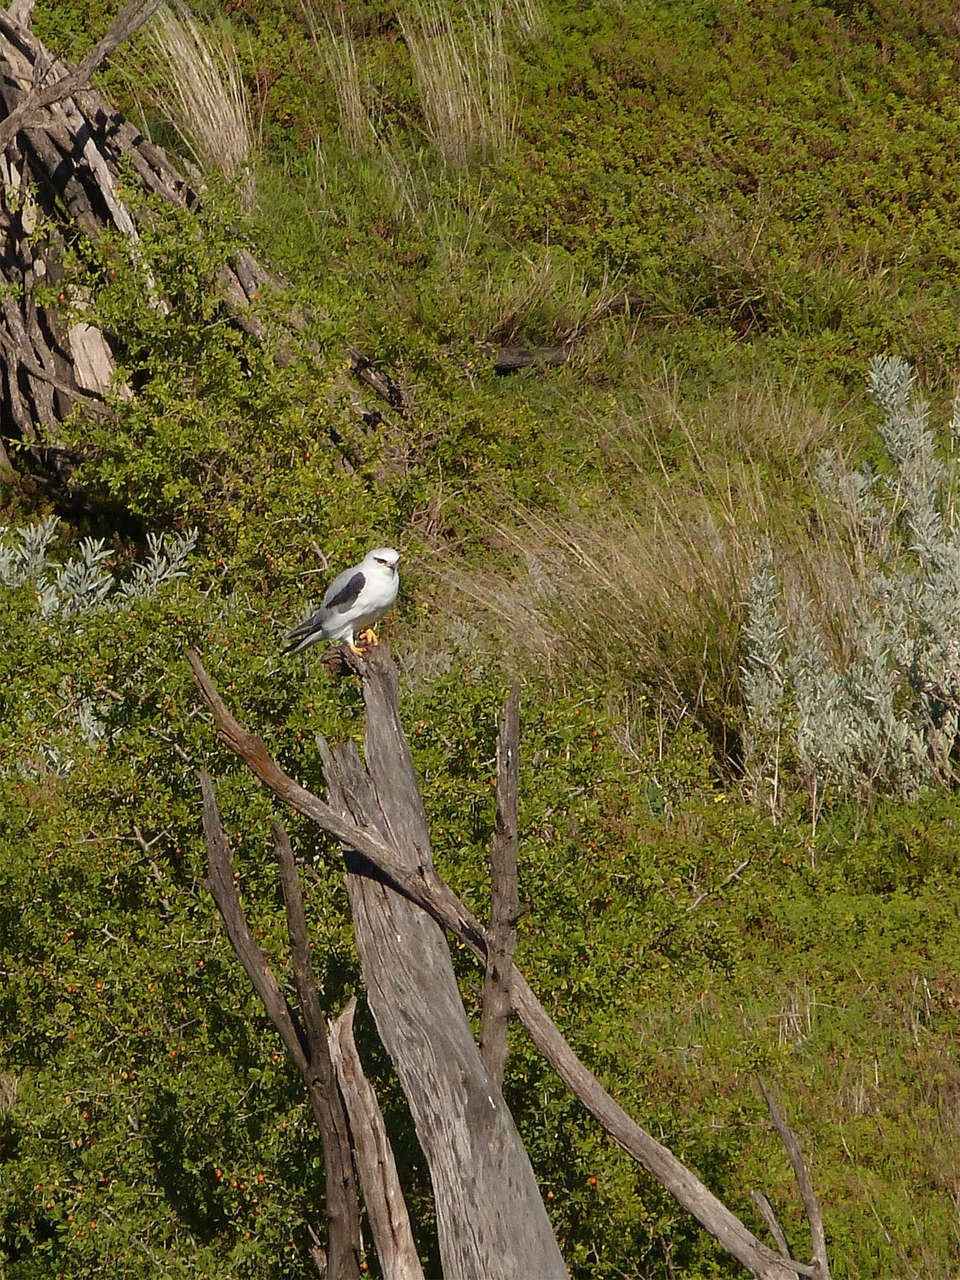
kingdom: Animalia
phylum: Chordata
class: Aves
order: Accipitriformes
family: Accipitridae
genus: Elanus
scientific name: Elanus axillaris
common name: Black-shouldered kite
